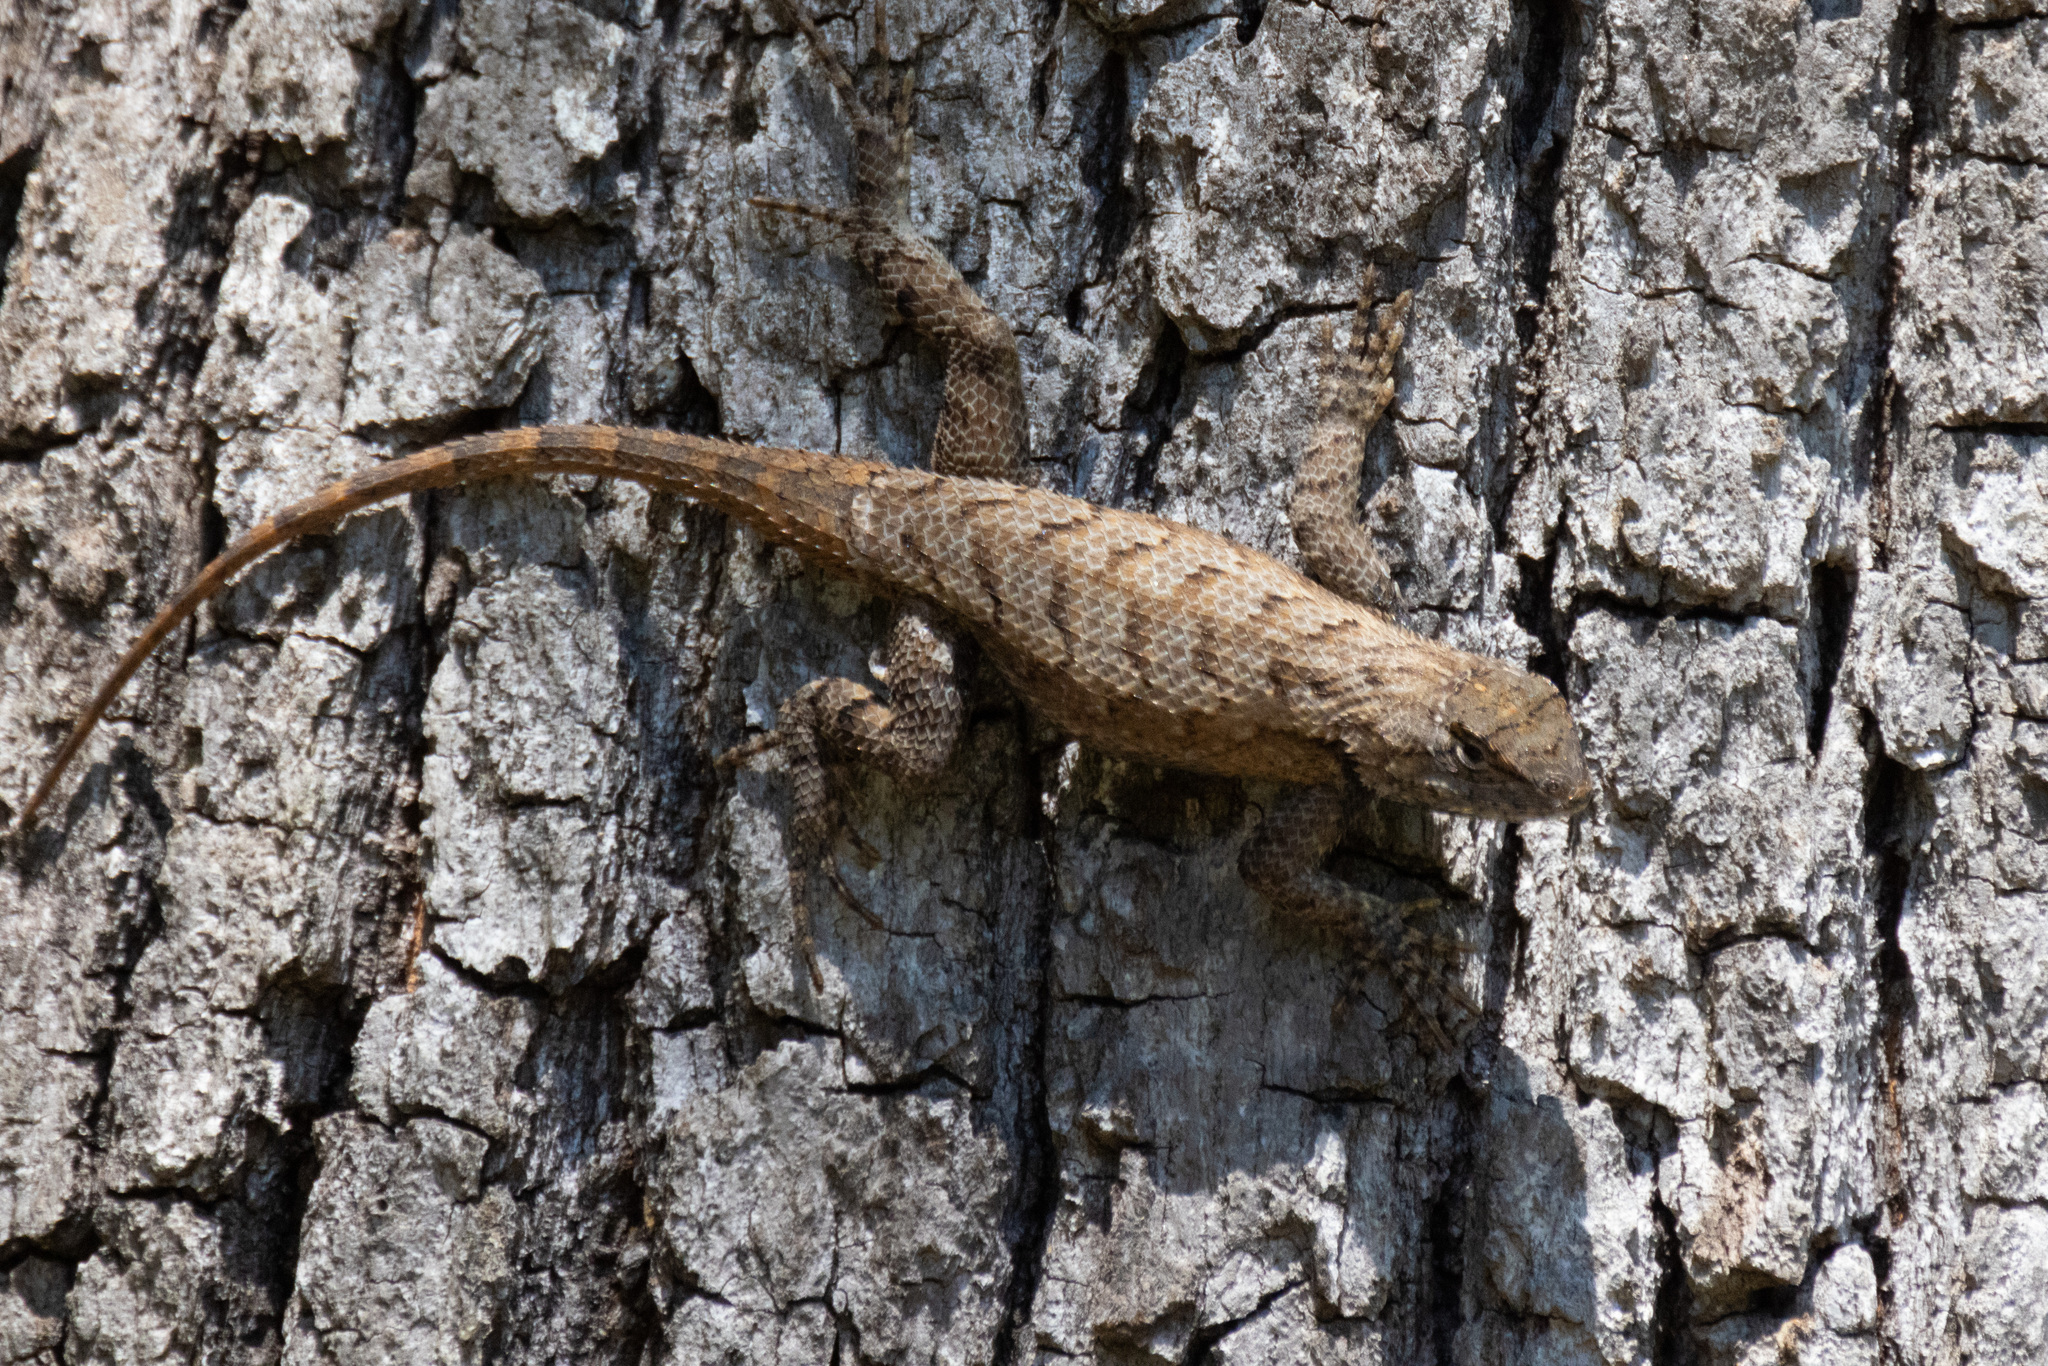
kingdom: Animalia
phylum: Chordata
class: Squamata
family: Phrynosomatidae
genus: Sceloporus
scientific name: Sceloporus undulatus
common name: Eastern fence lizard
